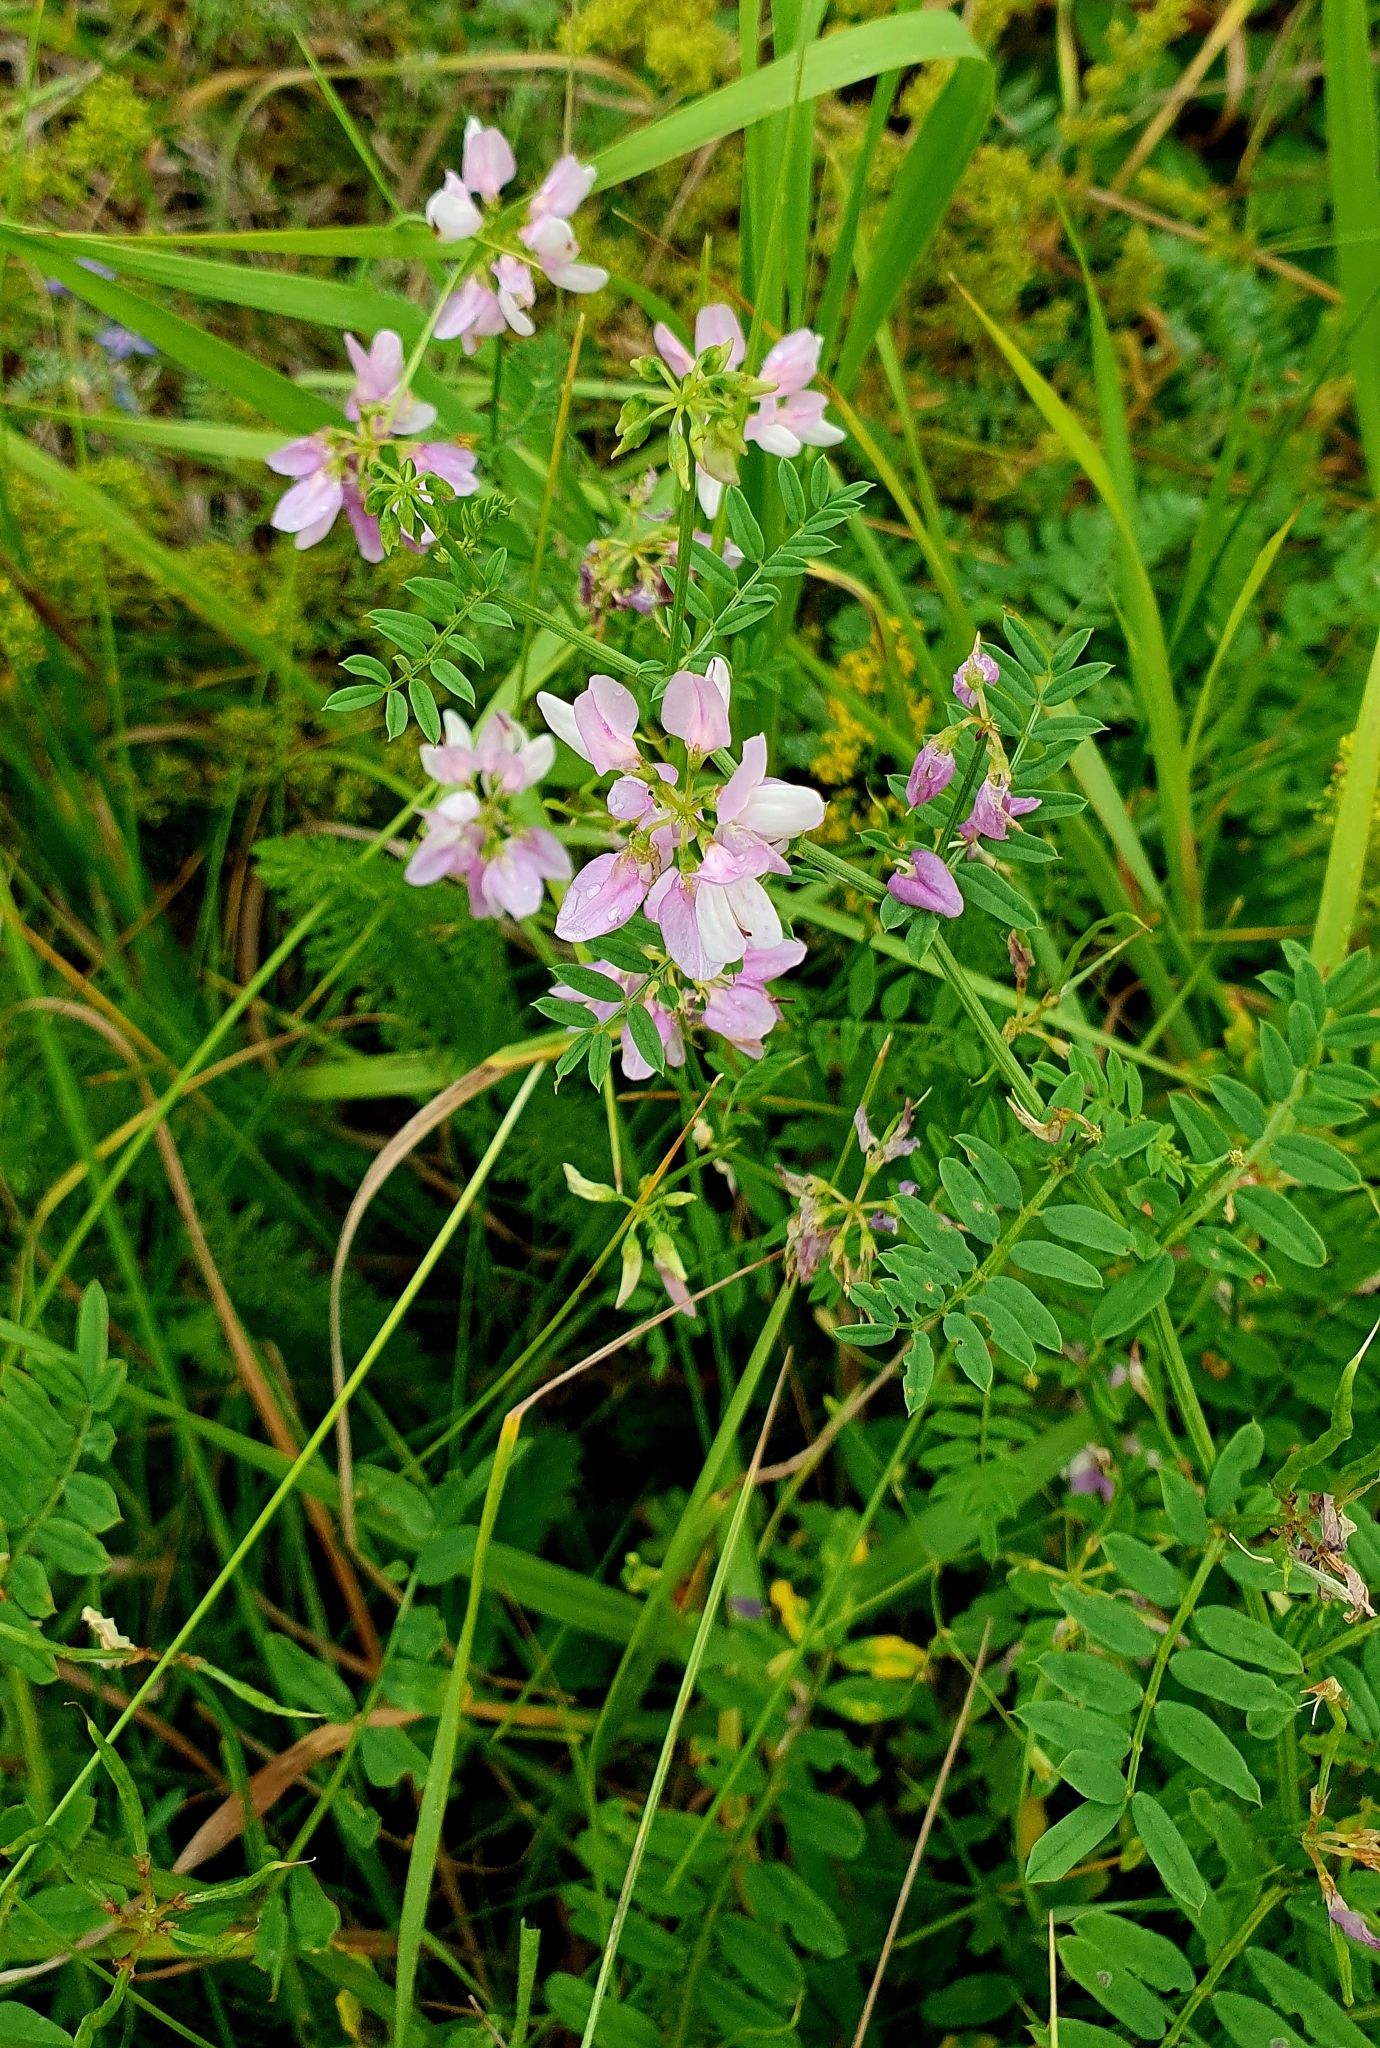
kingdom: Plantae
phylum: Tracheophyta
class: Magnoliopsida
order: Fabales
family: Fabaceae
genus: Coronilla
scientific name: Coronilla varia
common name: Crownvetch
